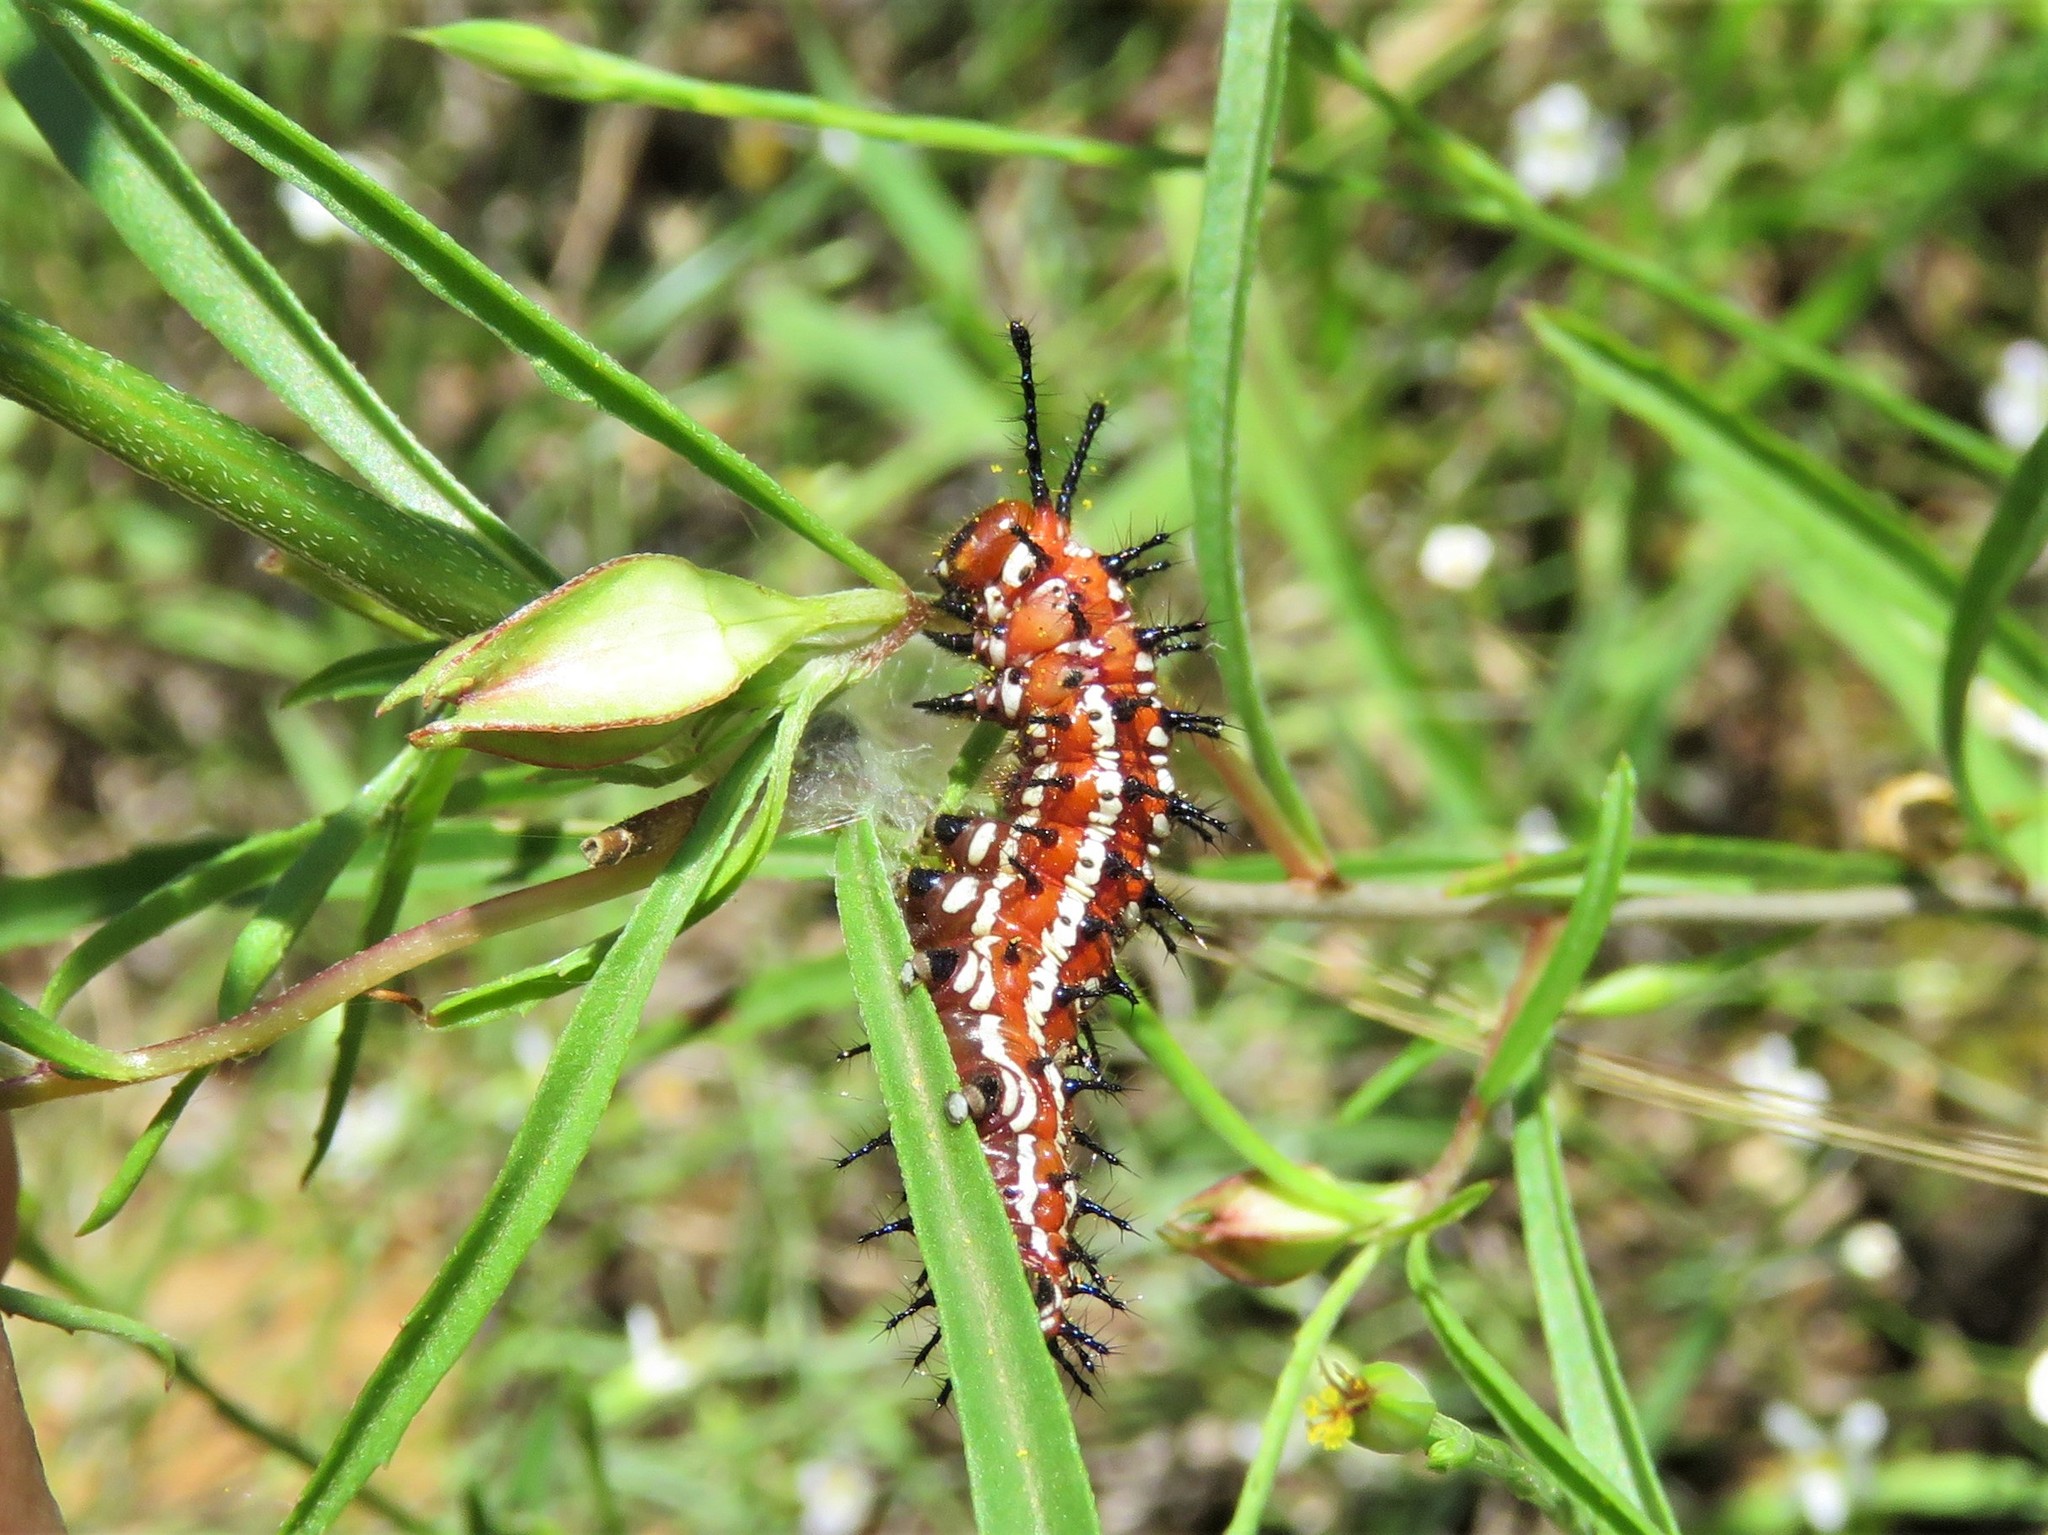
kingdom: Animalia
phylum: Arthropoda
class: Insecta
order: Lepidoptera
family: Nymphalidae
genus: Euptoieta
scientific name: Euptoieta claudia
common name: Variegated fritillary
